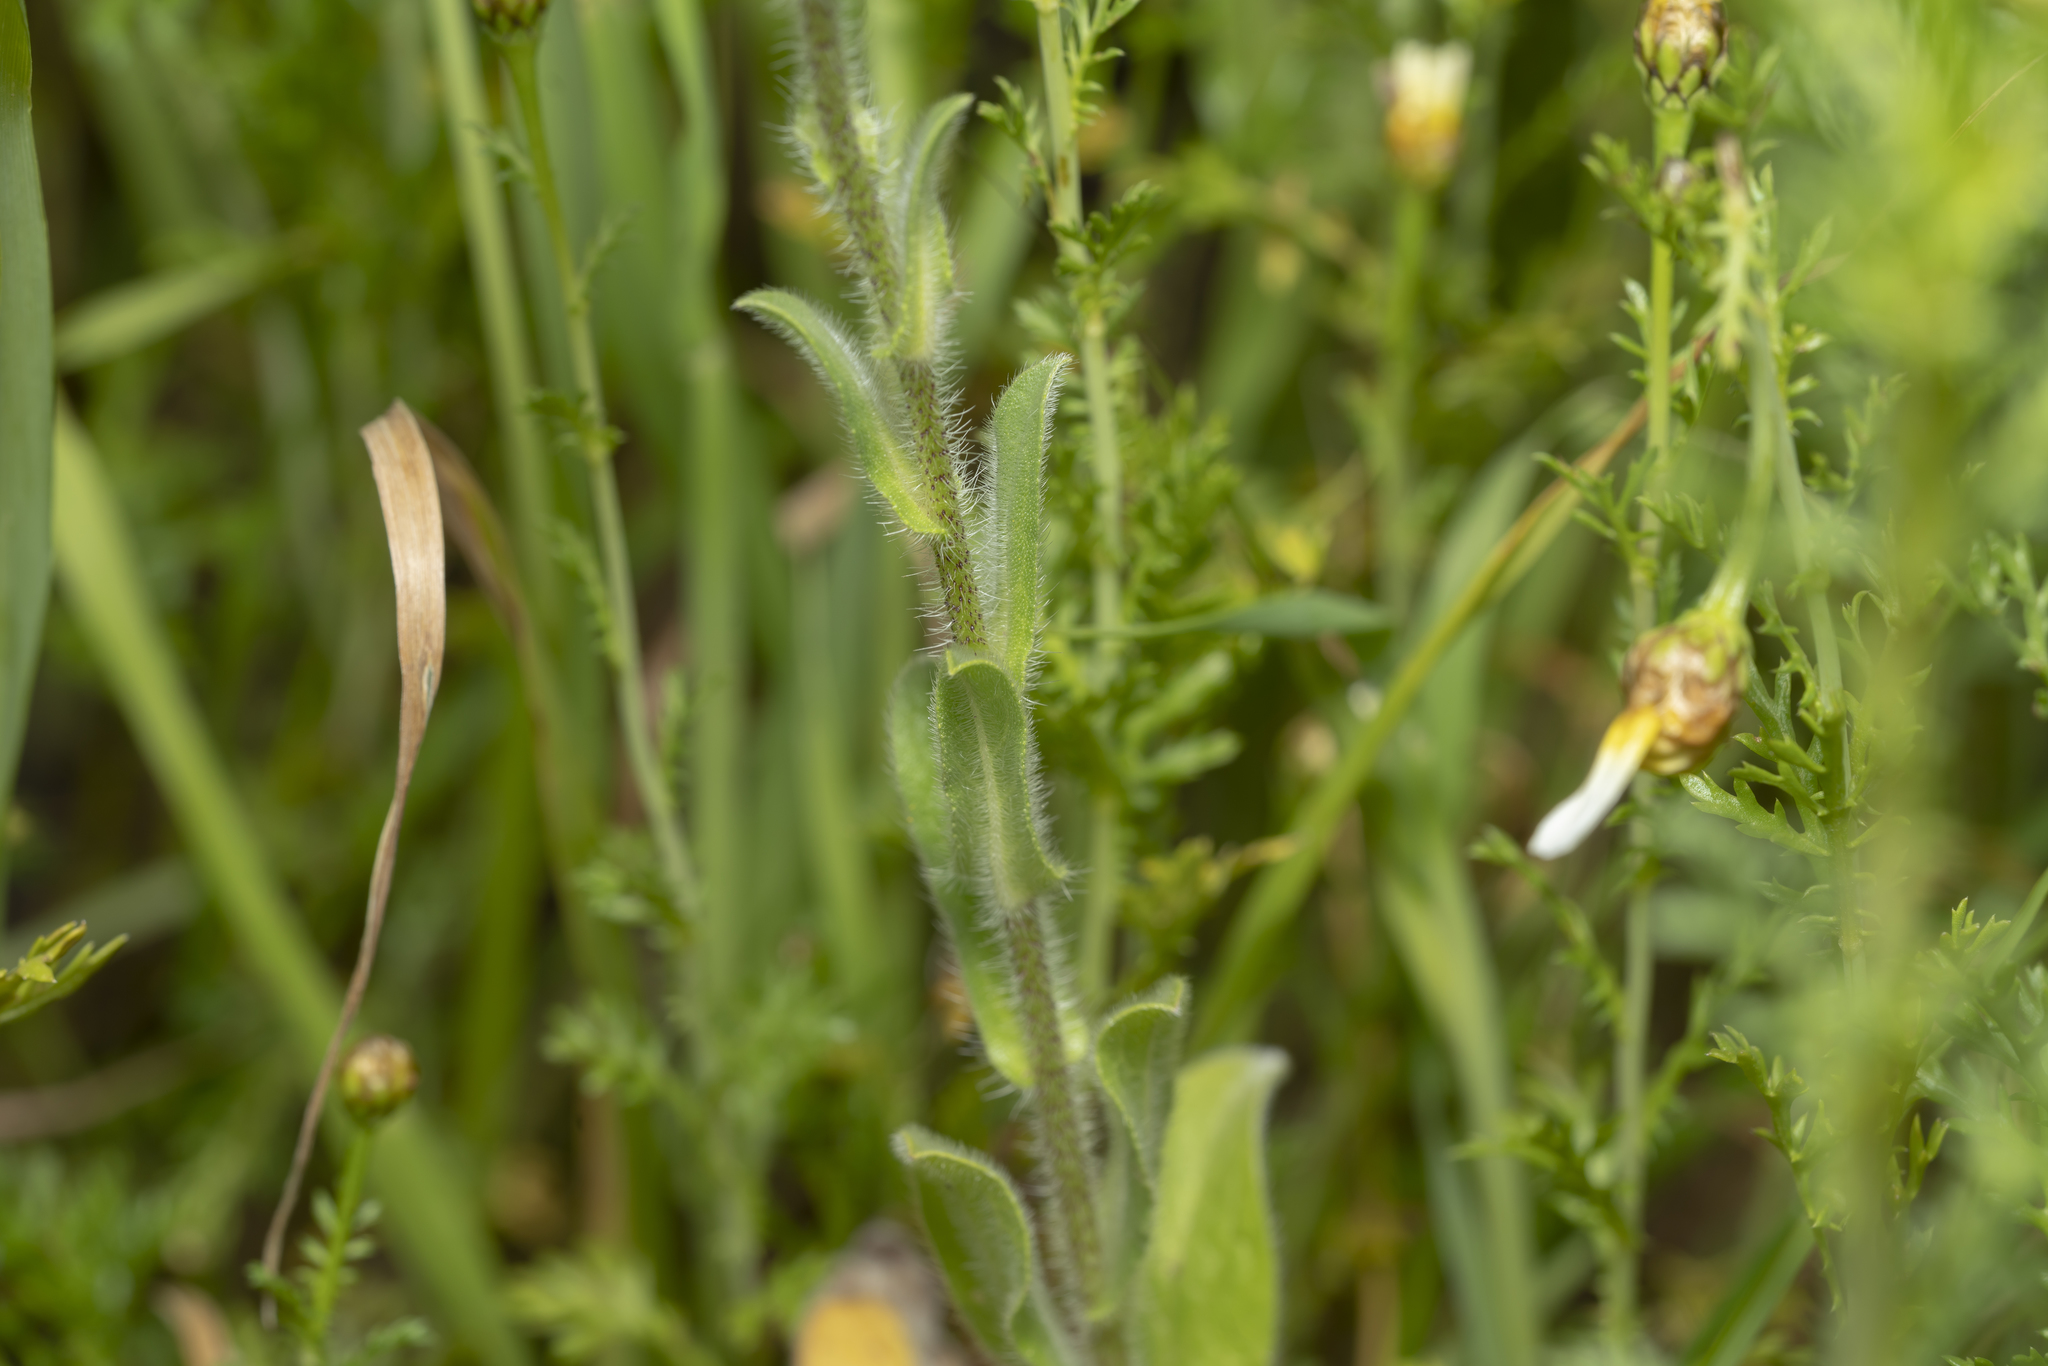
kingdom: Plantae
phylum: Tracheophyta
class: Magnoliopsida
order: Boraginales
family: Boraginaceae
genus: Echium
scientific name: Echium plantagineum
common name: Purple viper's-bugloss
